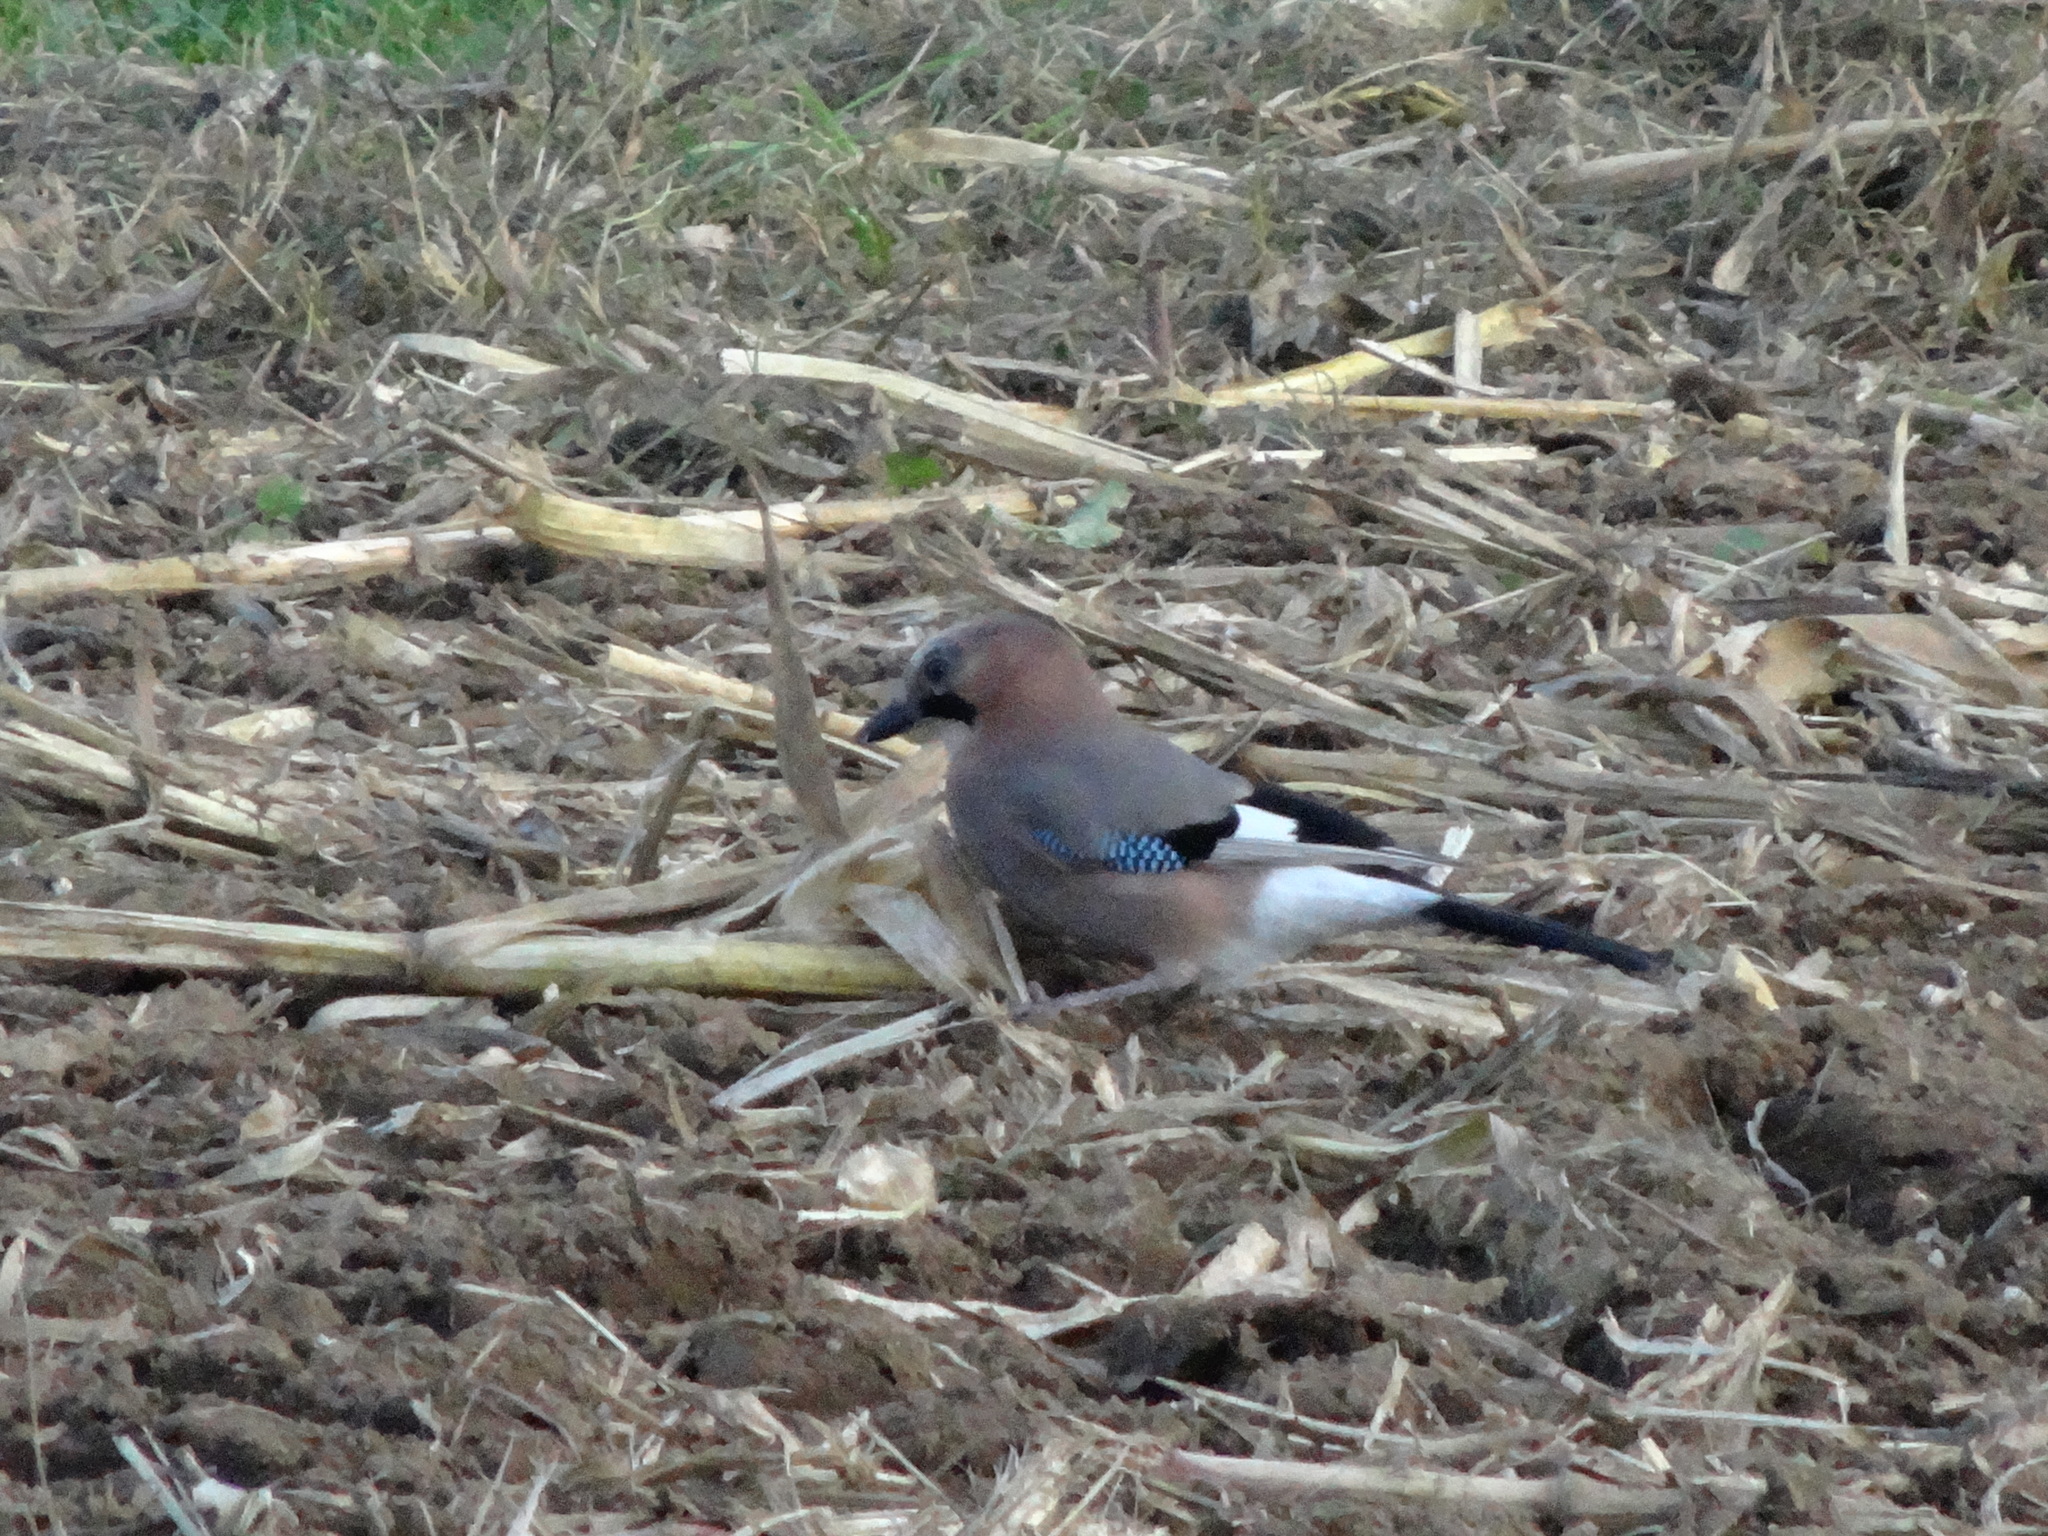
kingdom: Animalia
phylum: Chordata
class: Aves
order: Passeriformes
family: Corvidae
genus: Garrulus
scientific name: Garrulus glandarius
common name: Eurasian jay
